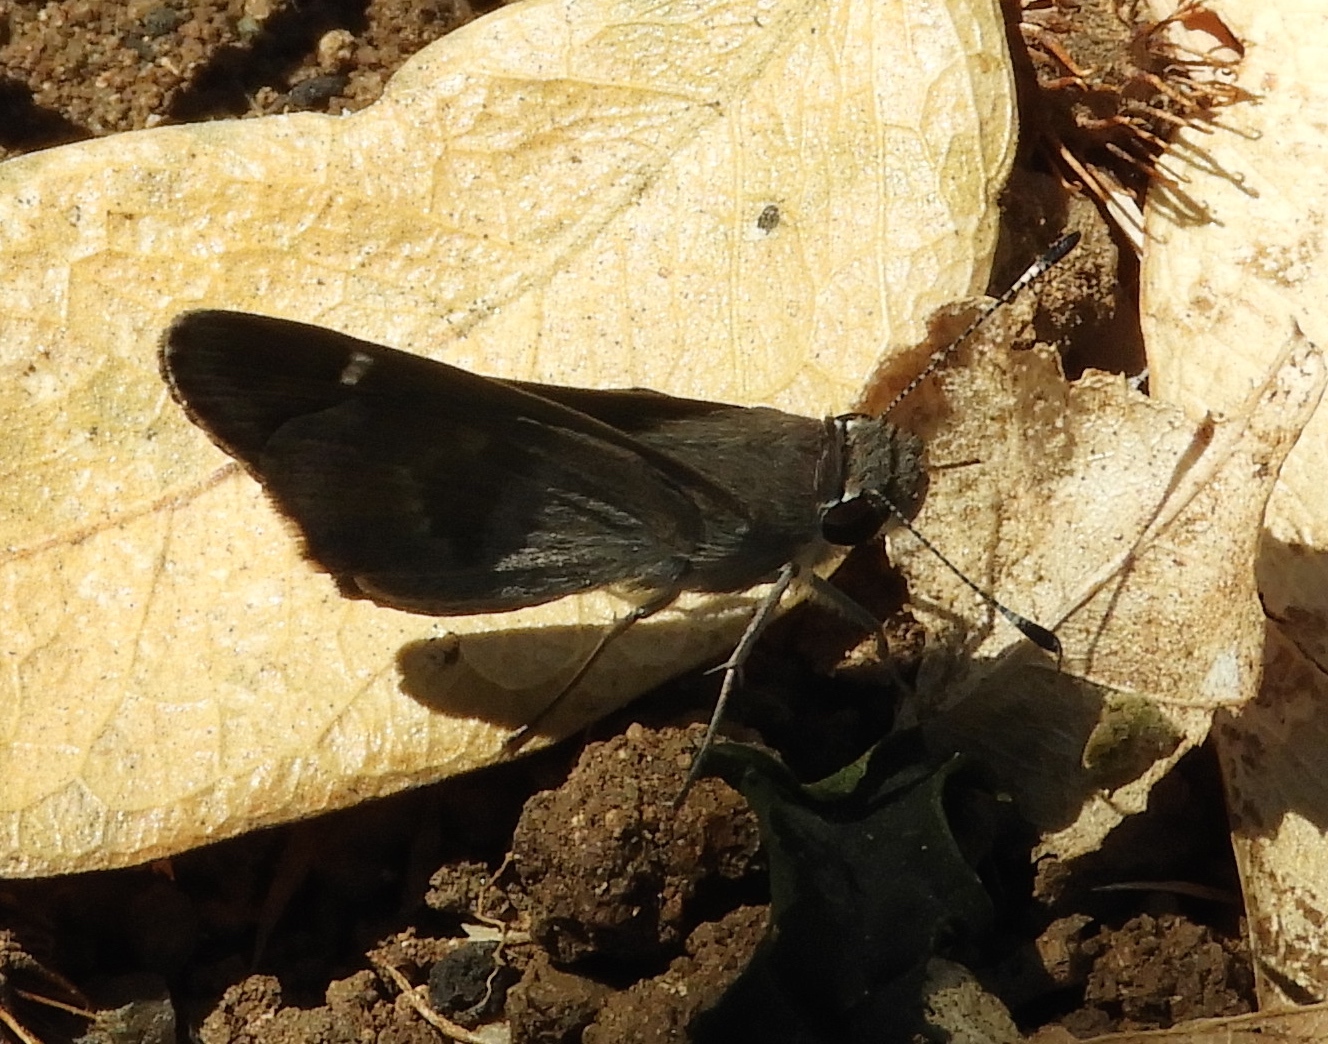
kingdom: Animalia
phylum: Arthropoda
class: Insecta
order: Lepidoptera
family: Hesperiidae
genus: Panoquina
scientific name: Panoquina
